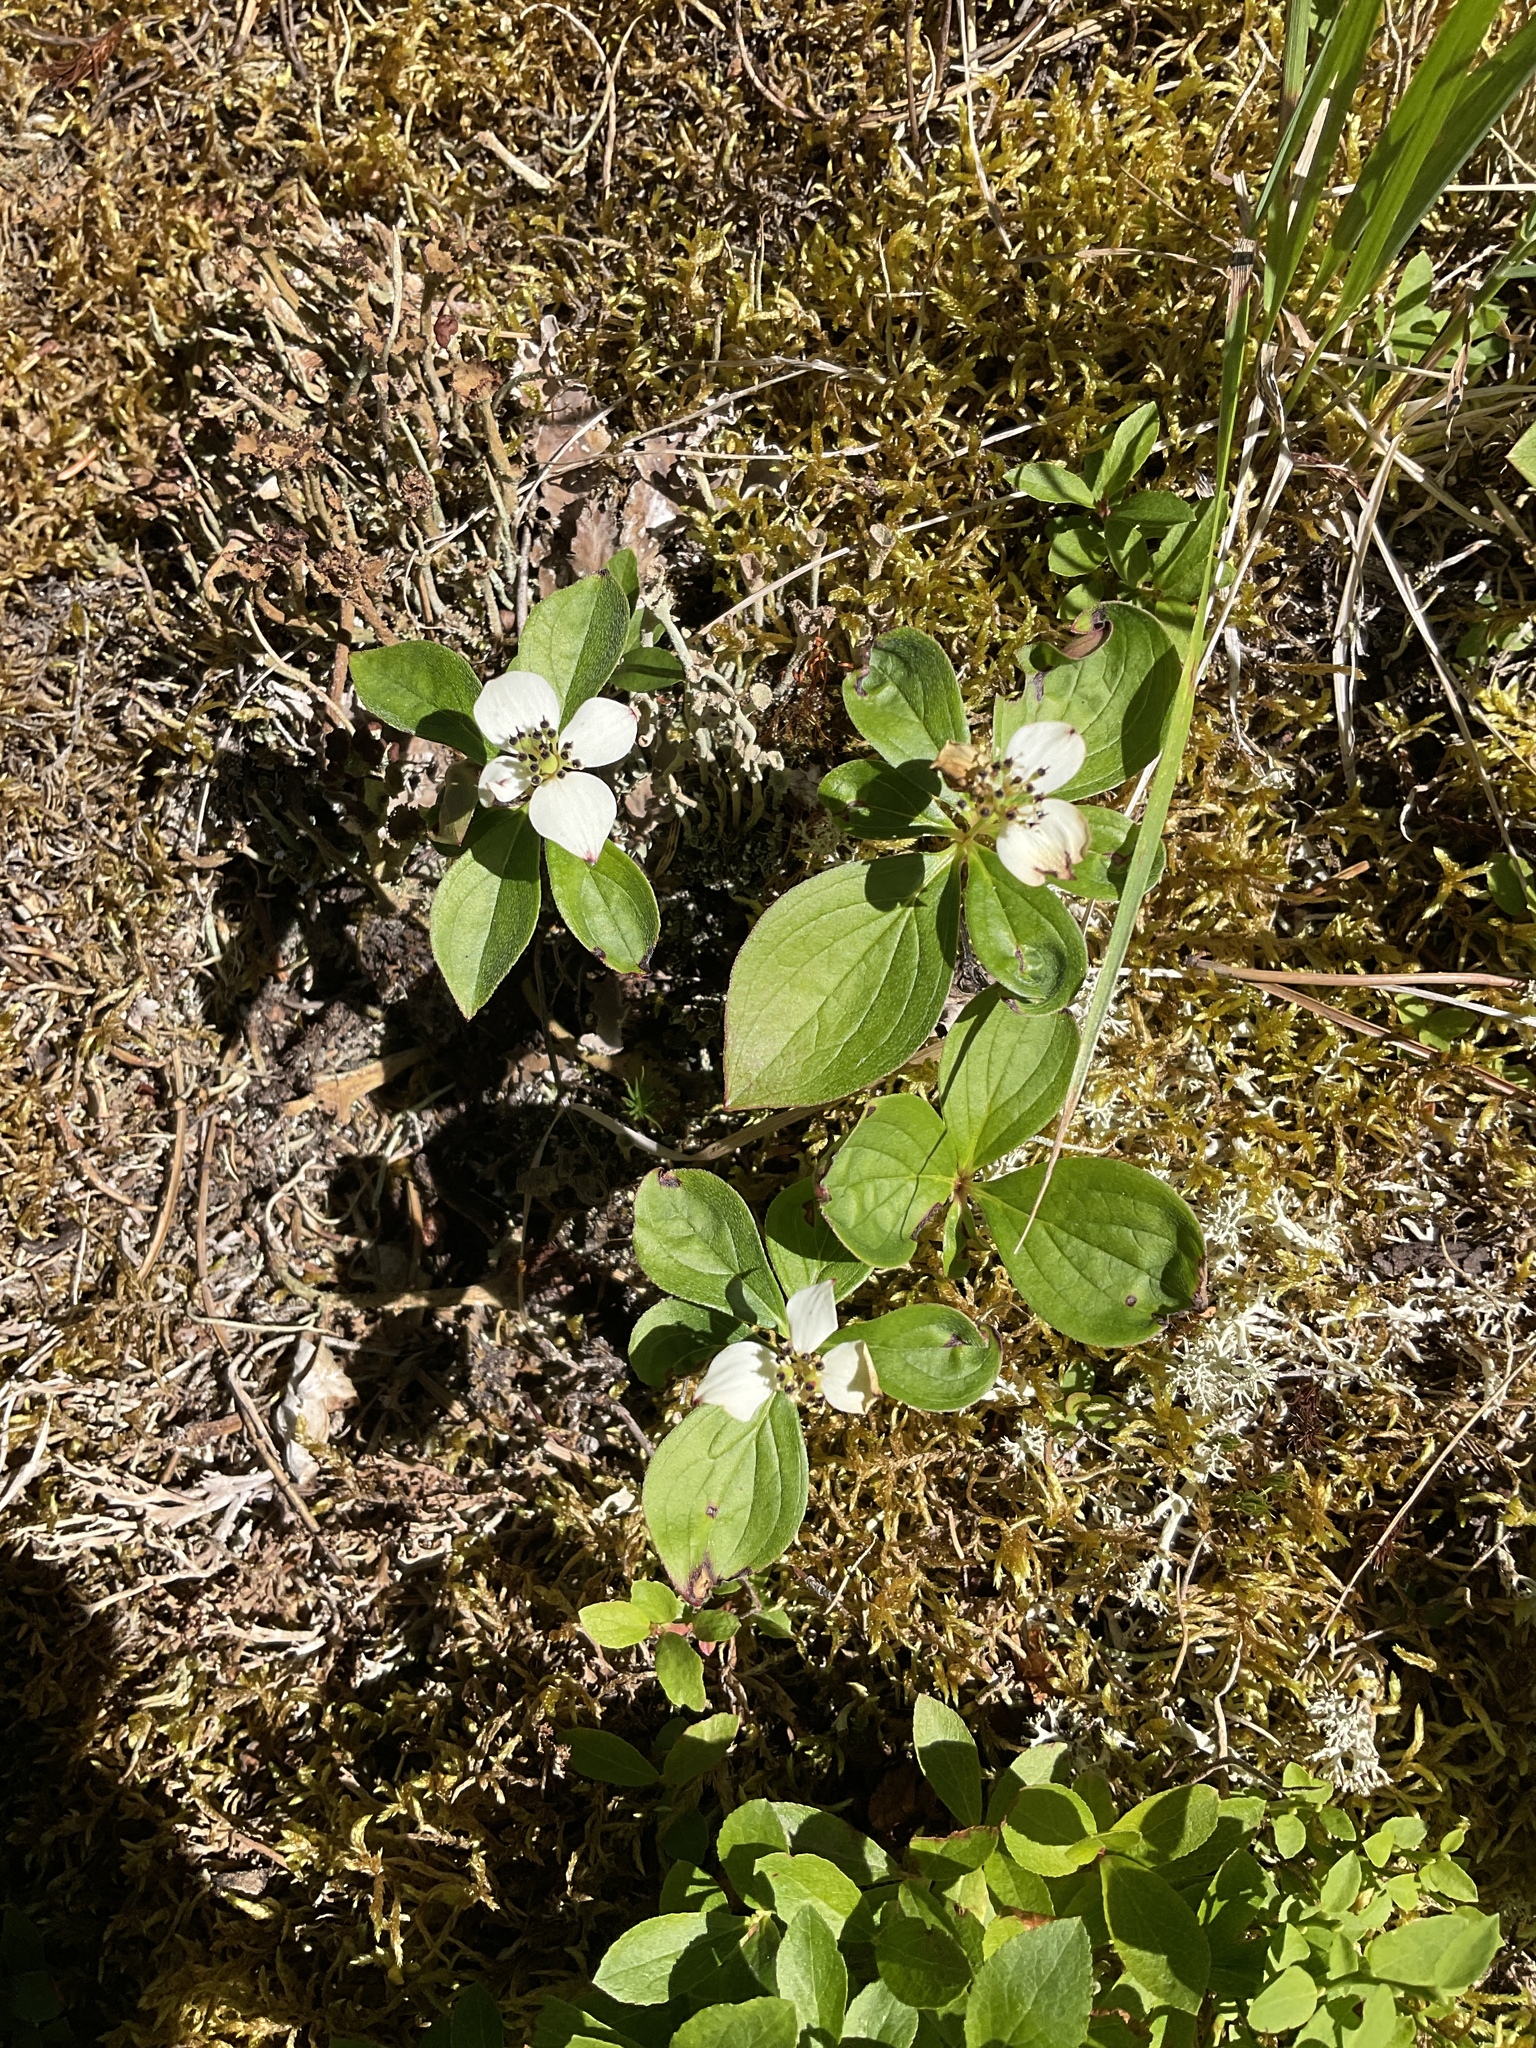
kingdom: Plantae
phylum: Tracheophyta
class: Magnoliopsida
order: Cornales
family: Cornaceae
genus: Cornus
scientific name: Cornus canadensis
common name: Creeping dogwood
